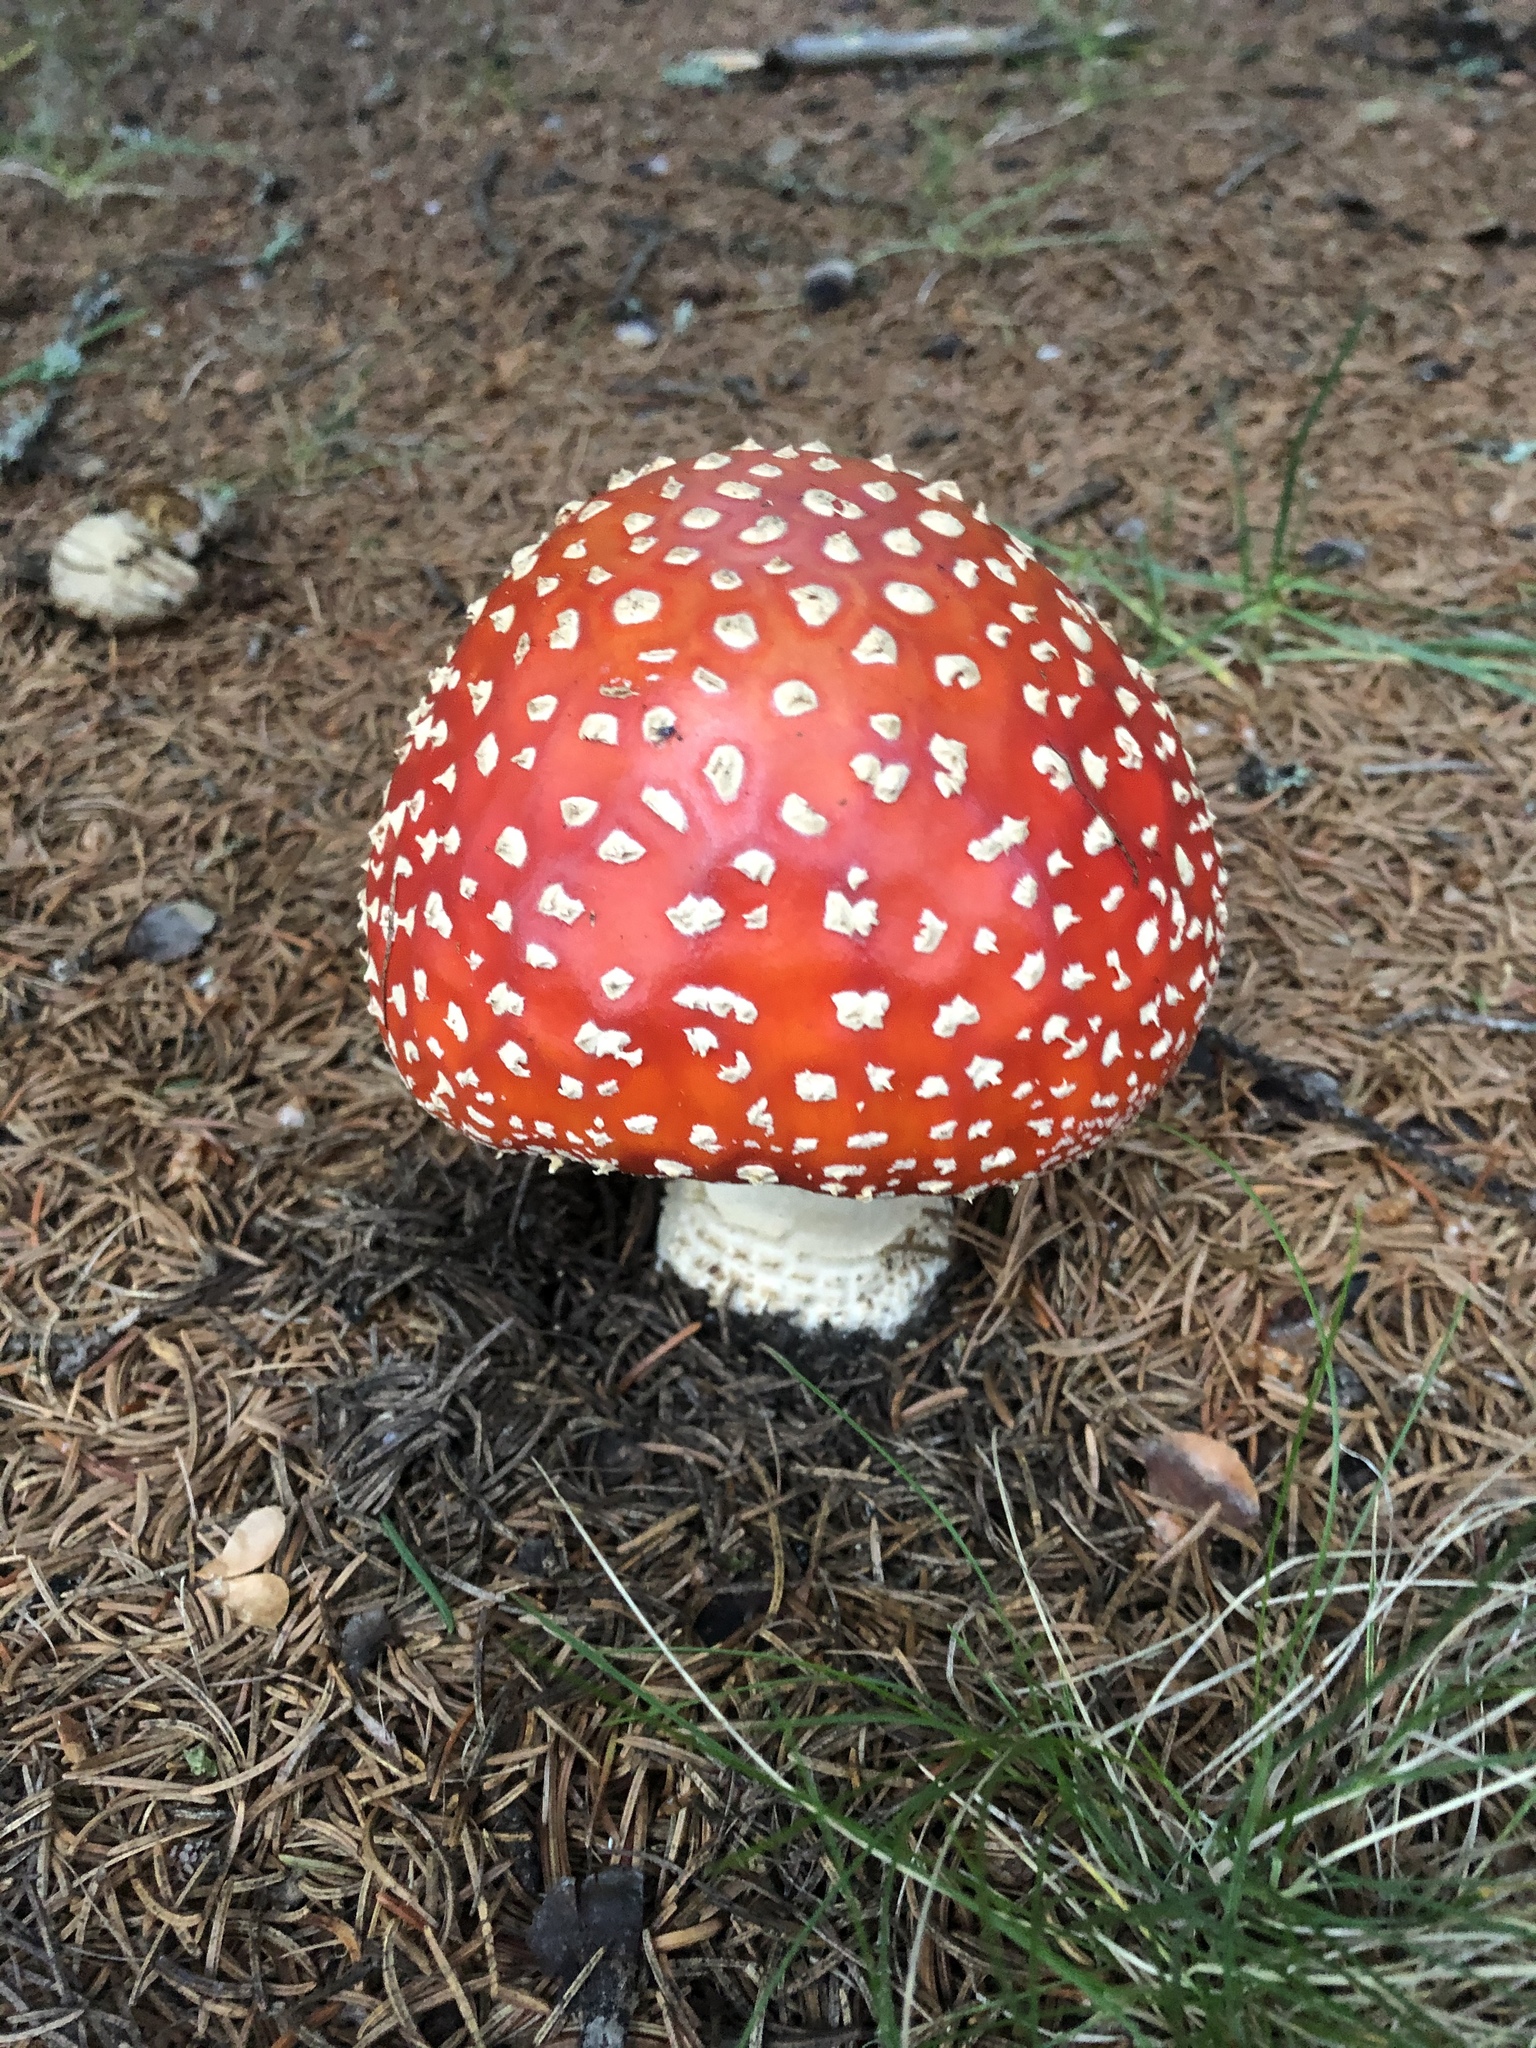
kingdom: Fungi
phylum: Basidiomycota
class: Agaricomycetes
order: Agaricales
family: Amanitaceae
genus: Amanita
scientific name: Amanita muscaria
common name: Fly agaric
